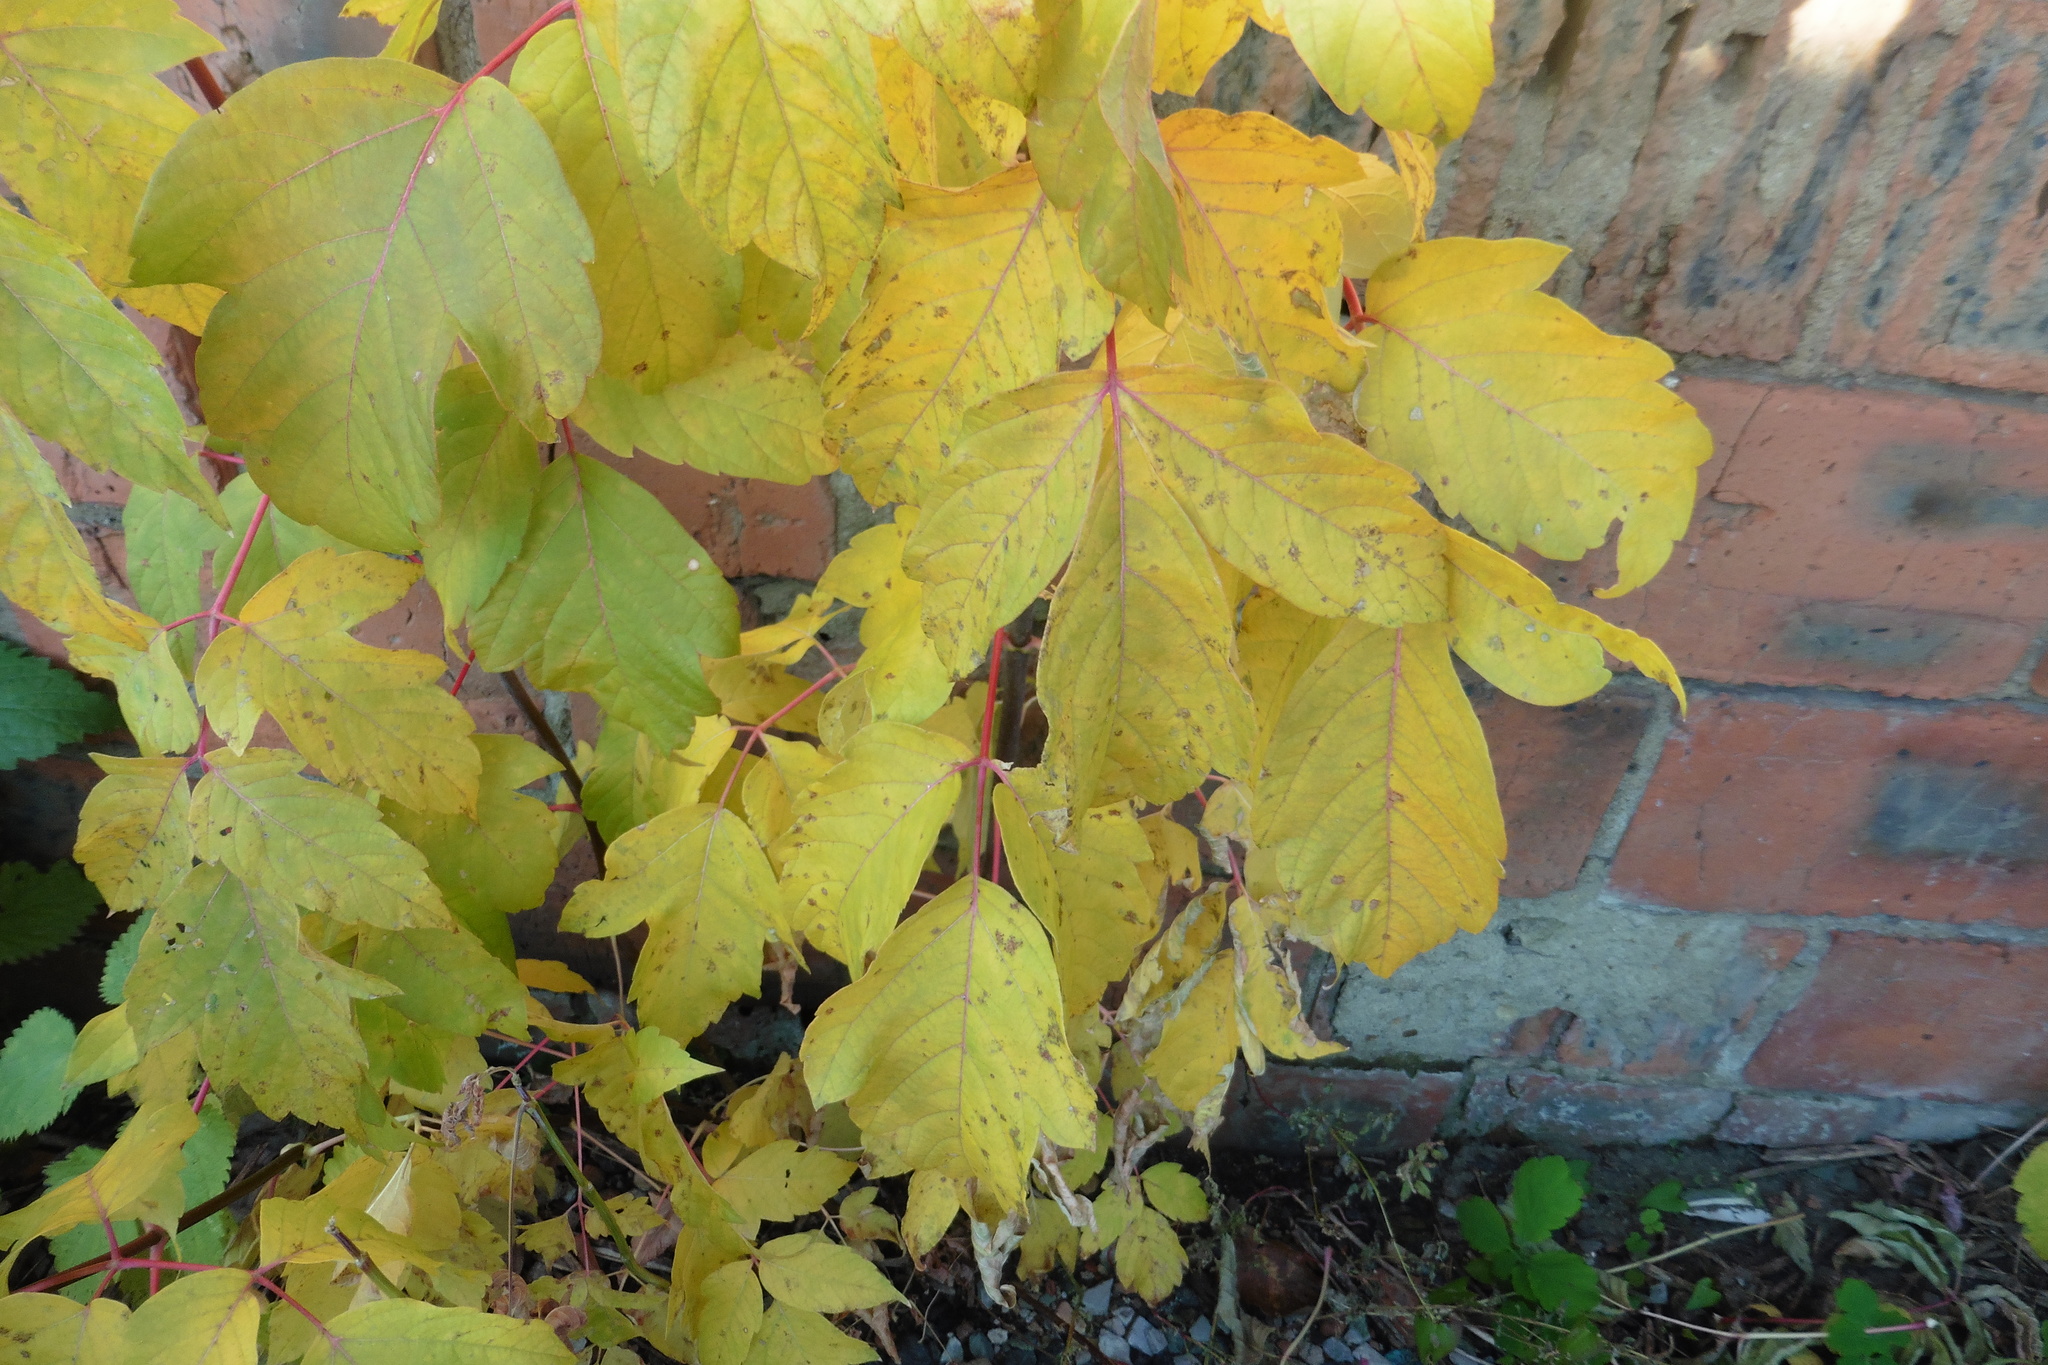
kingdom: Plantae
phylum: Tracheophyta
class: Magnoliopsida
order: Sapindales
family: Sapindaceae
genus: Acer
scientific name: Acer negundo
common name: Ashleaf maple
